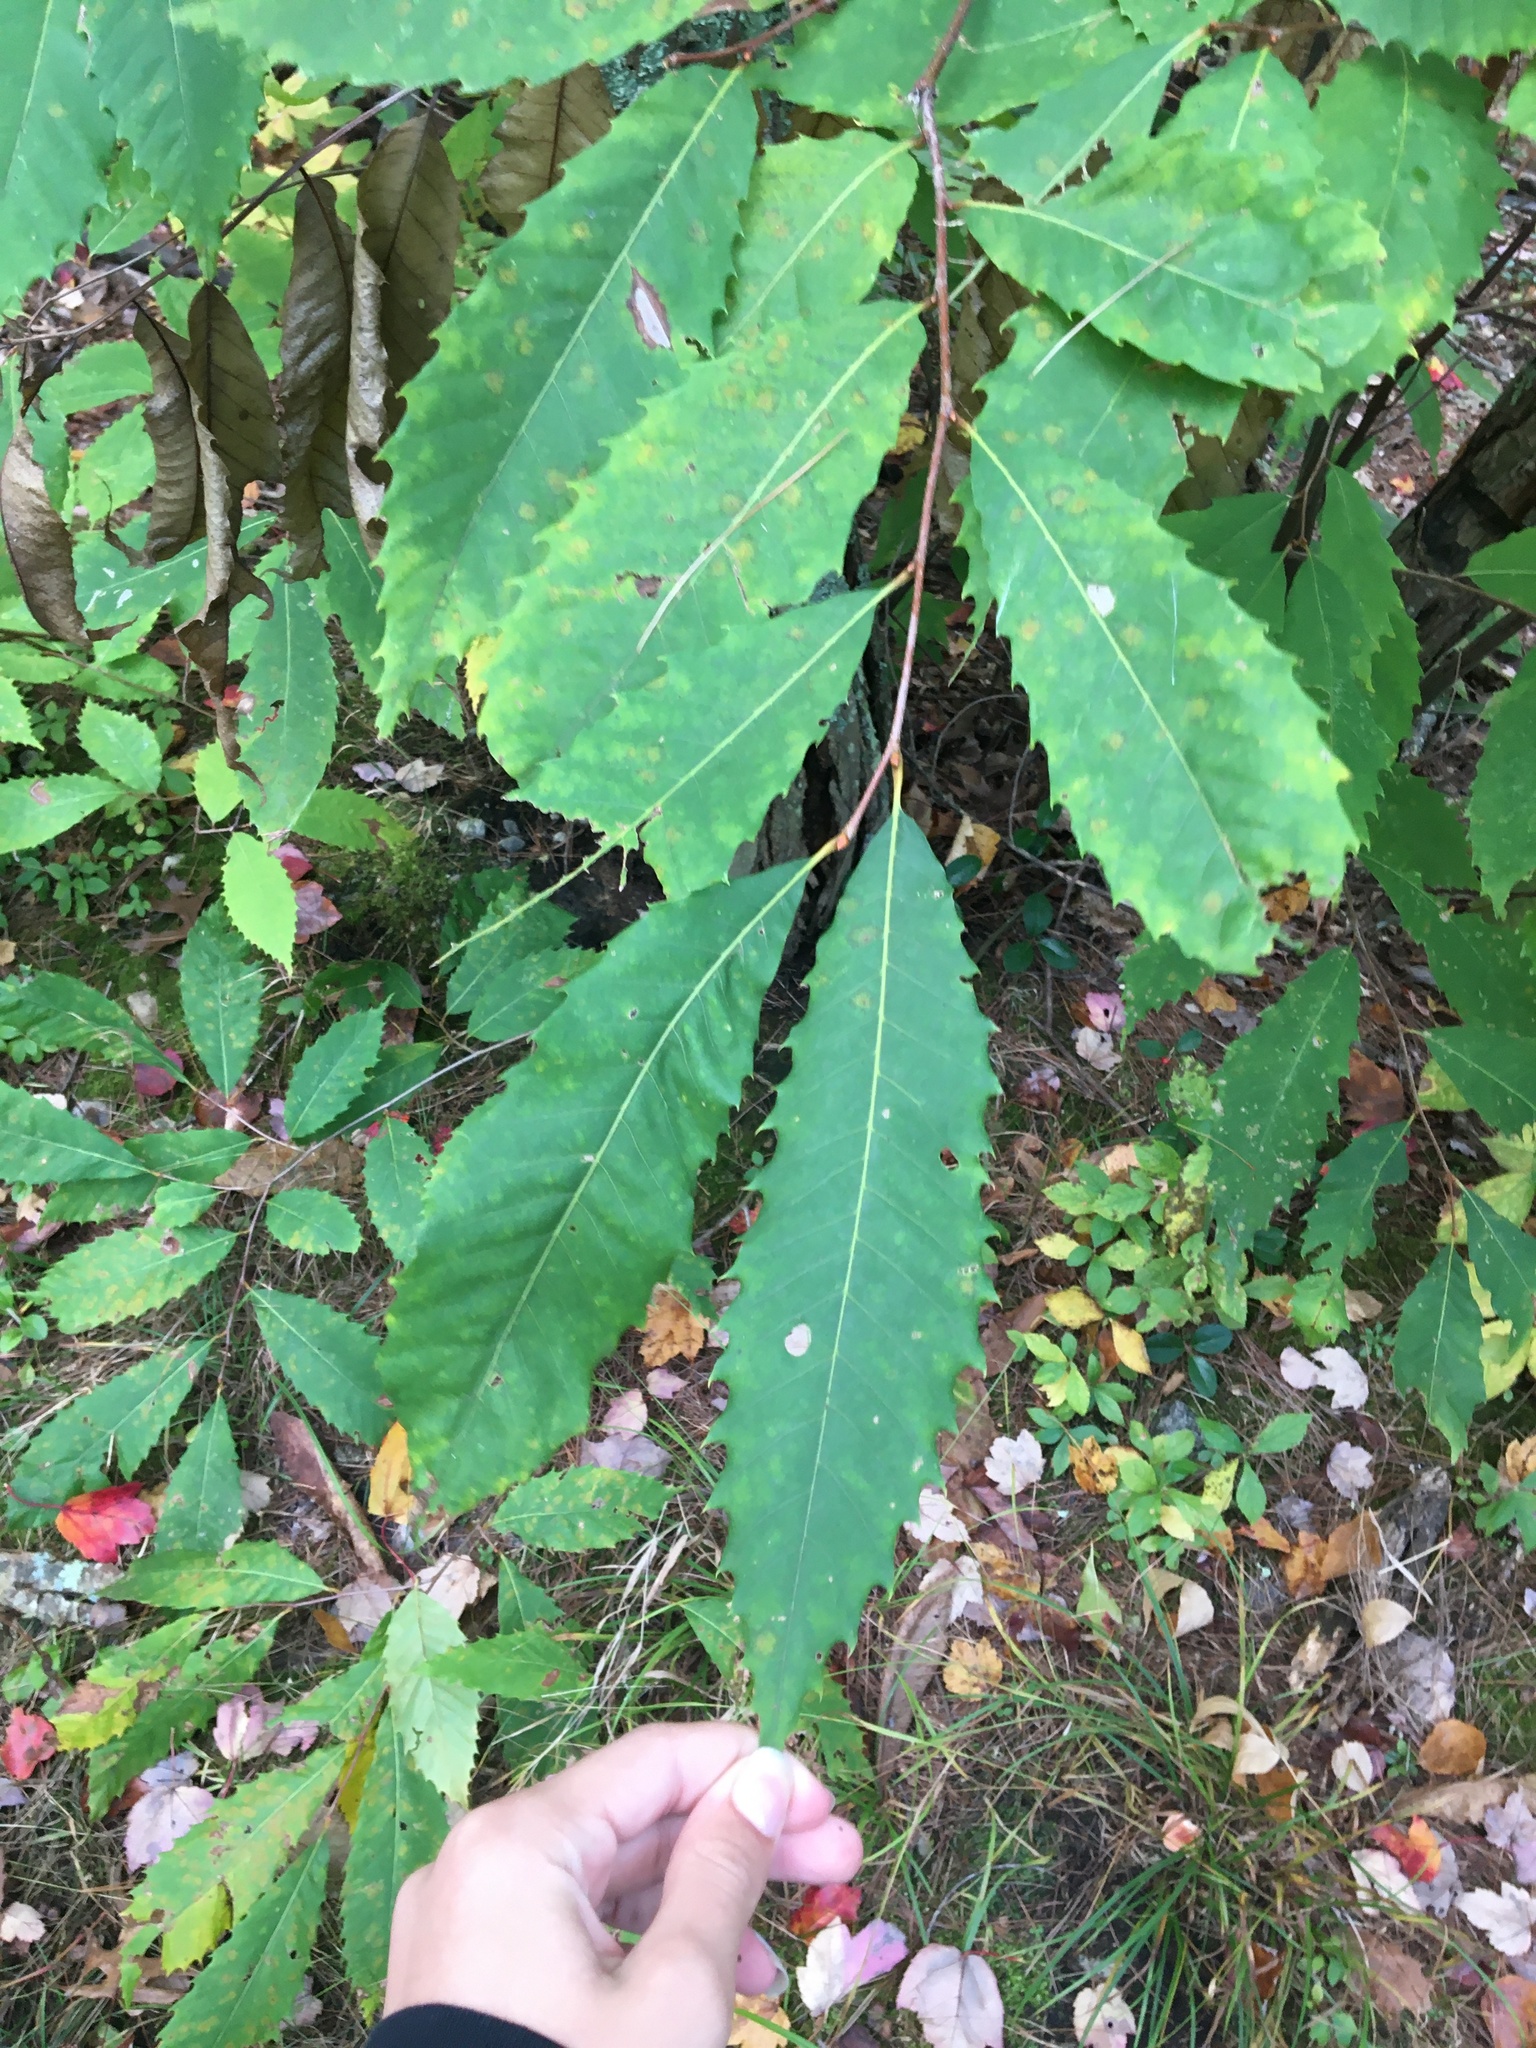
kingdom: Plantae
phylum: Tracheophyta
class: Magnoliopsida
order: Fagales
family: Fagaceae
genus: Castanea
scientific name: Castanea dentata
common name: American chestnut
